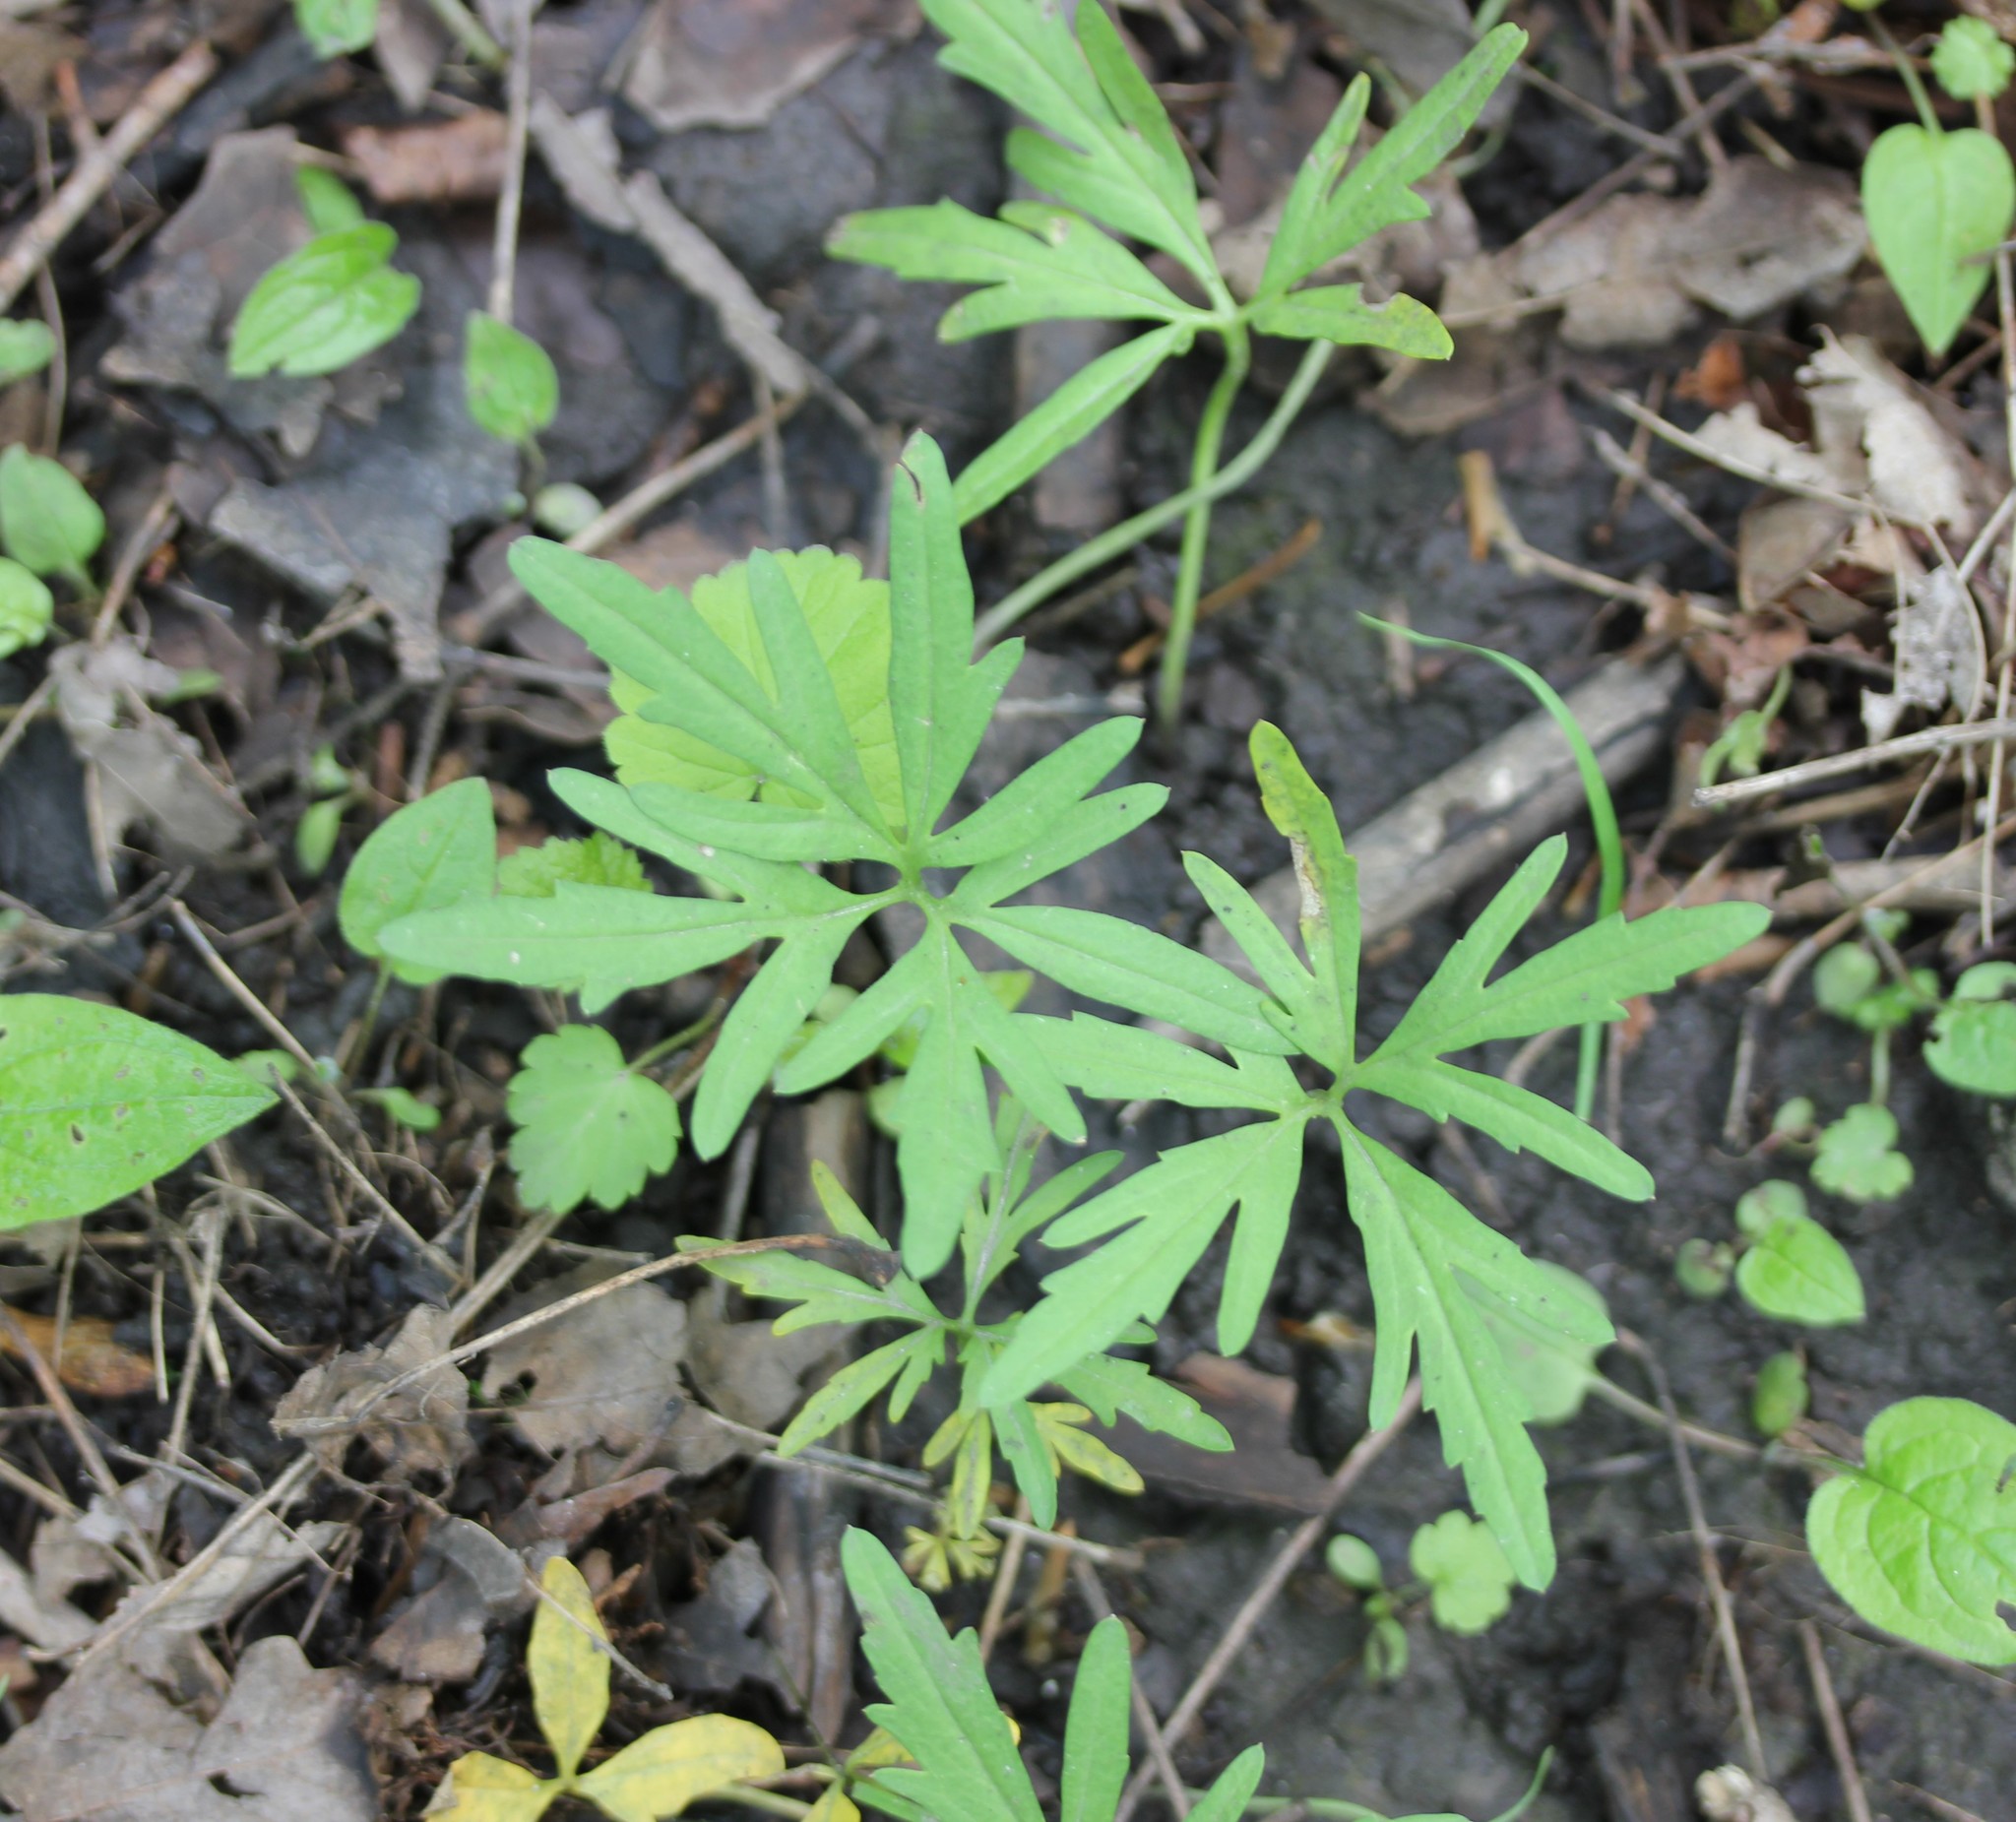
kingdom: Plantae
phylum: Tracheophyta
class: Magnoliopsida
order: Brassicales
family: Brassicaceae
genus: Cardamine
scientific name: Cardamine concatenata
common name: Cut-leaf toothcup
